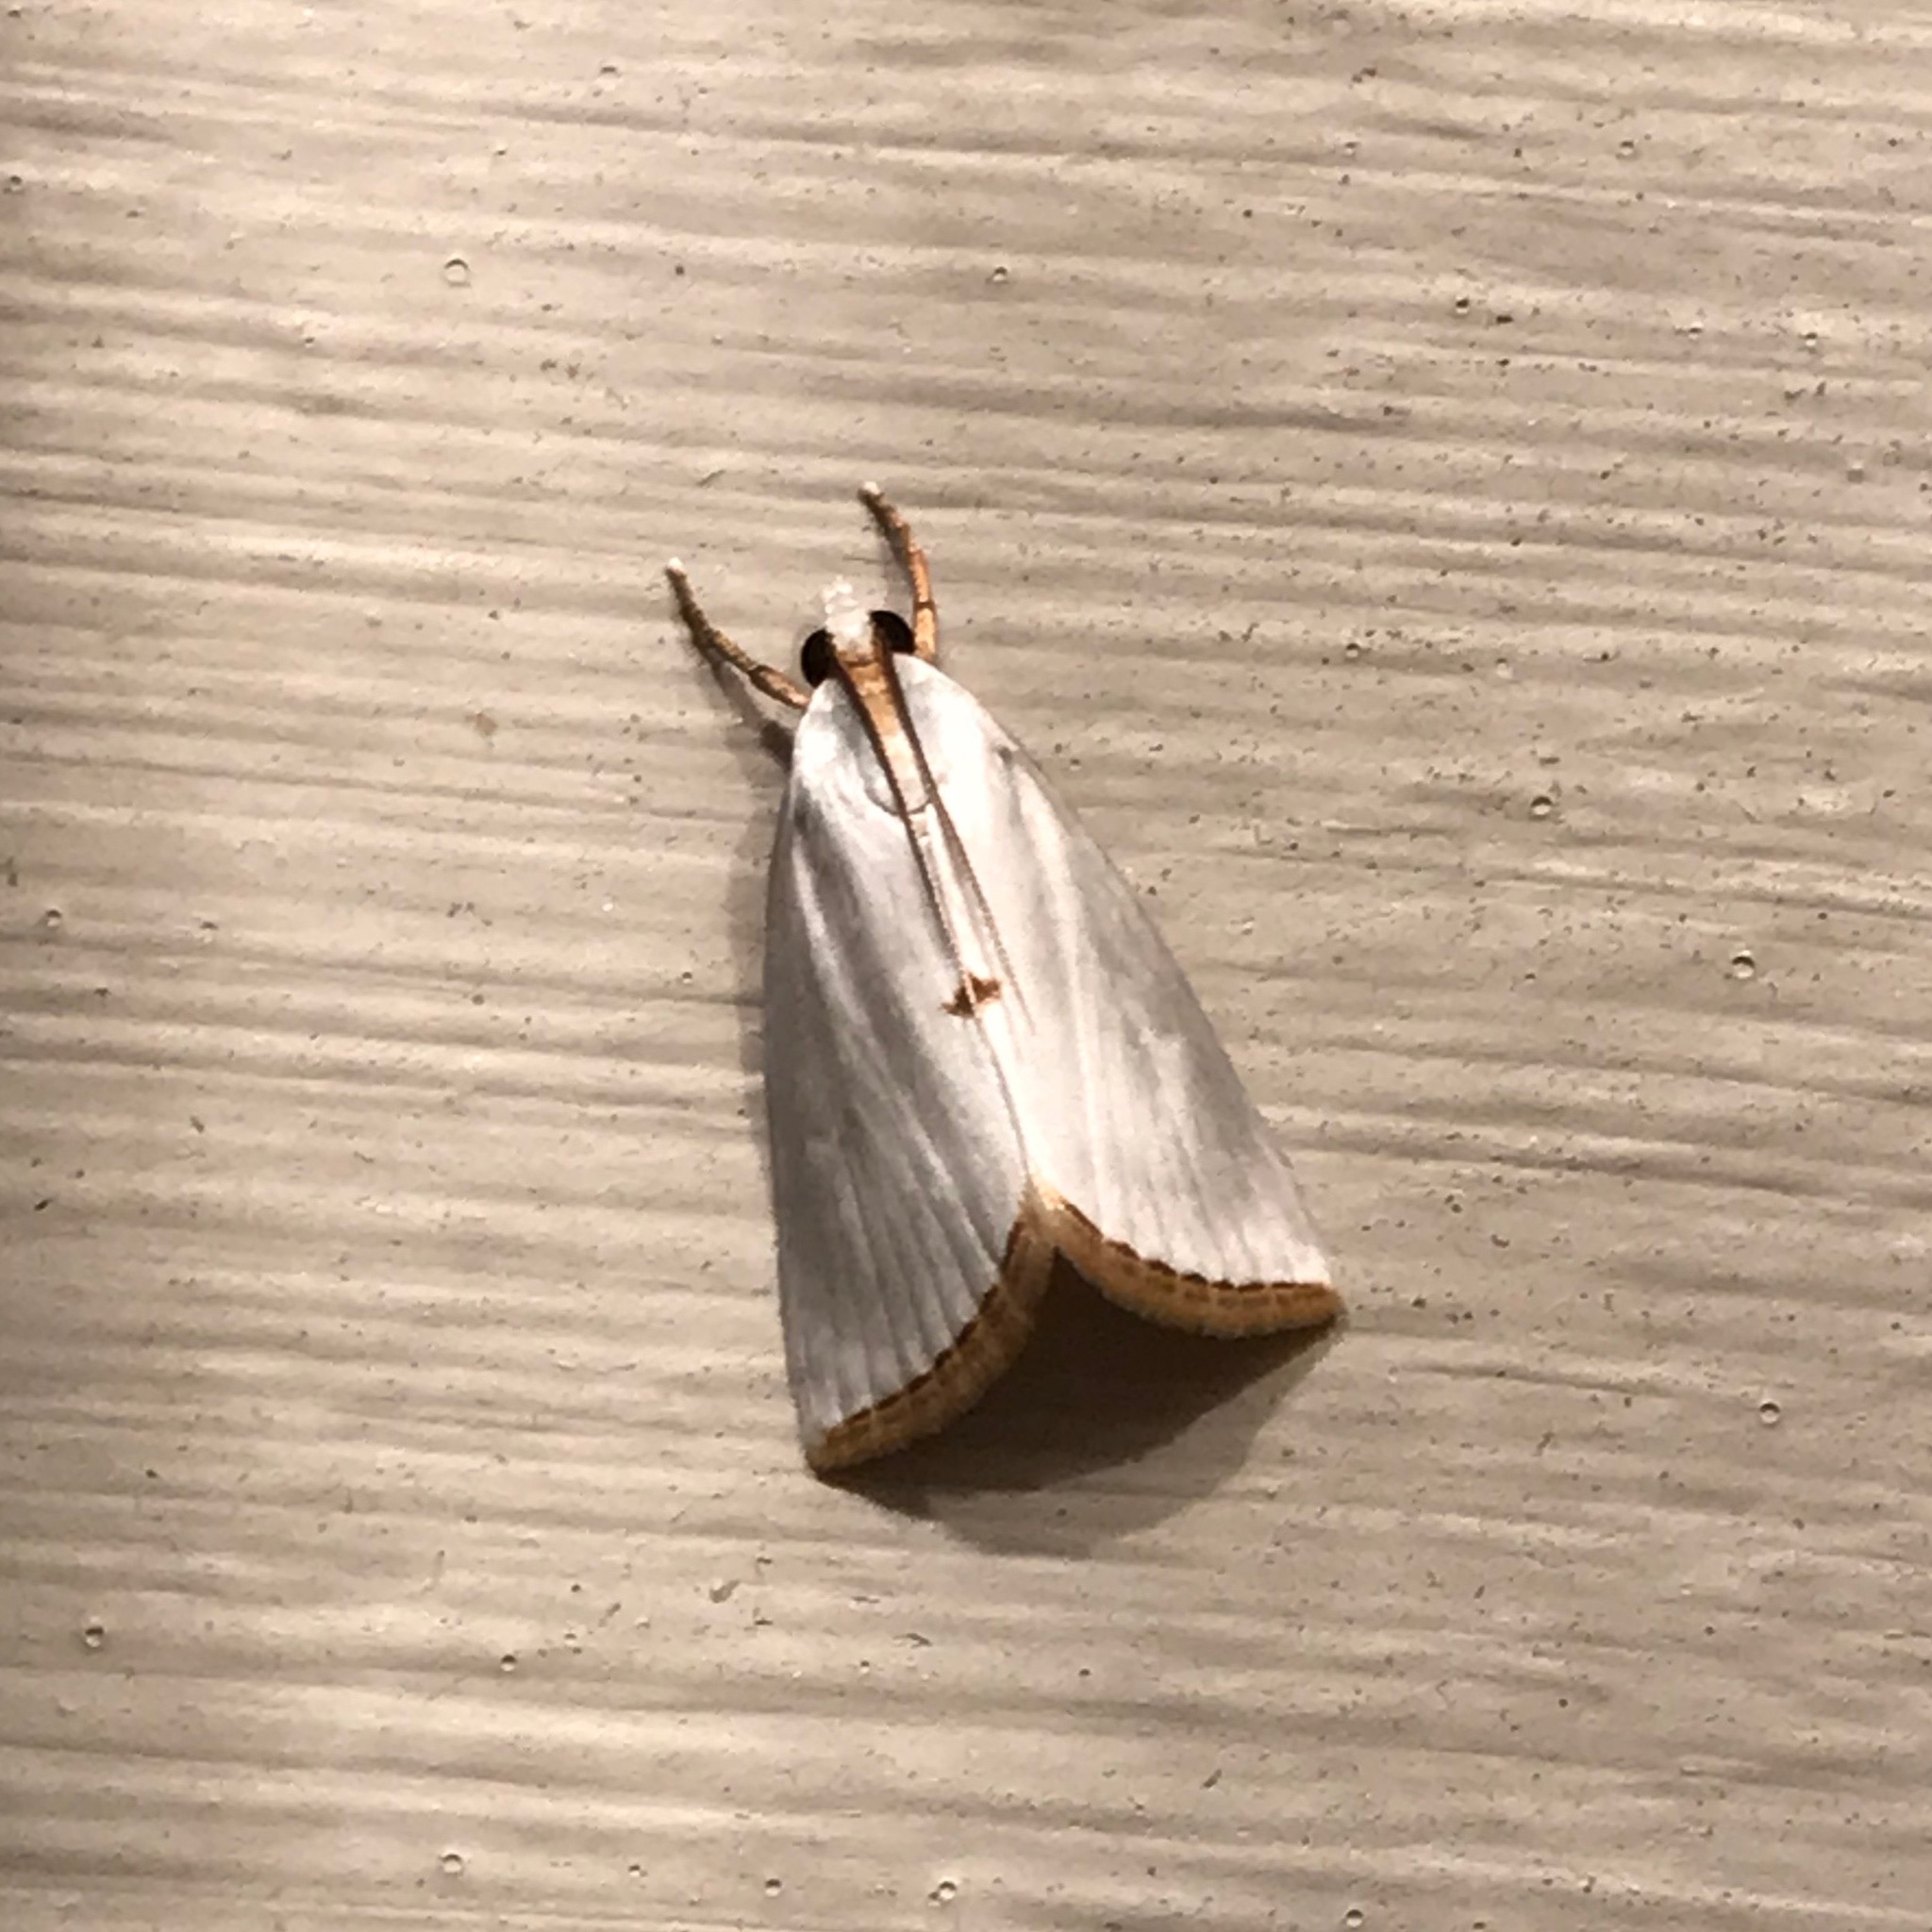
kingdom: Animalia
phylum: Arthropoda
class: Insecta
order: Lepidoptera
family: Crambidae
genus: Argyria
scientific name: Argyria nivalis
